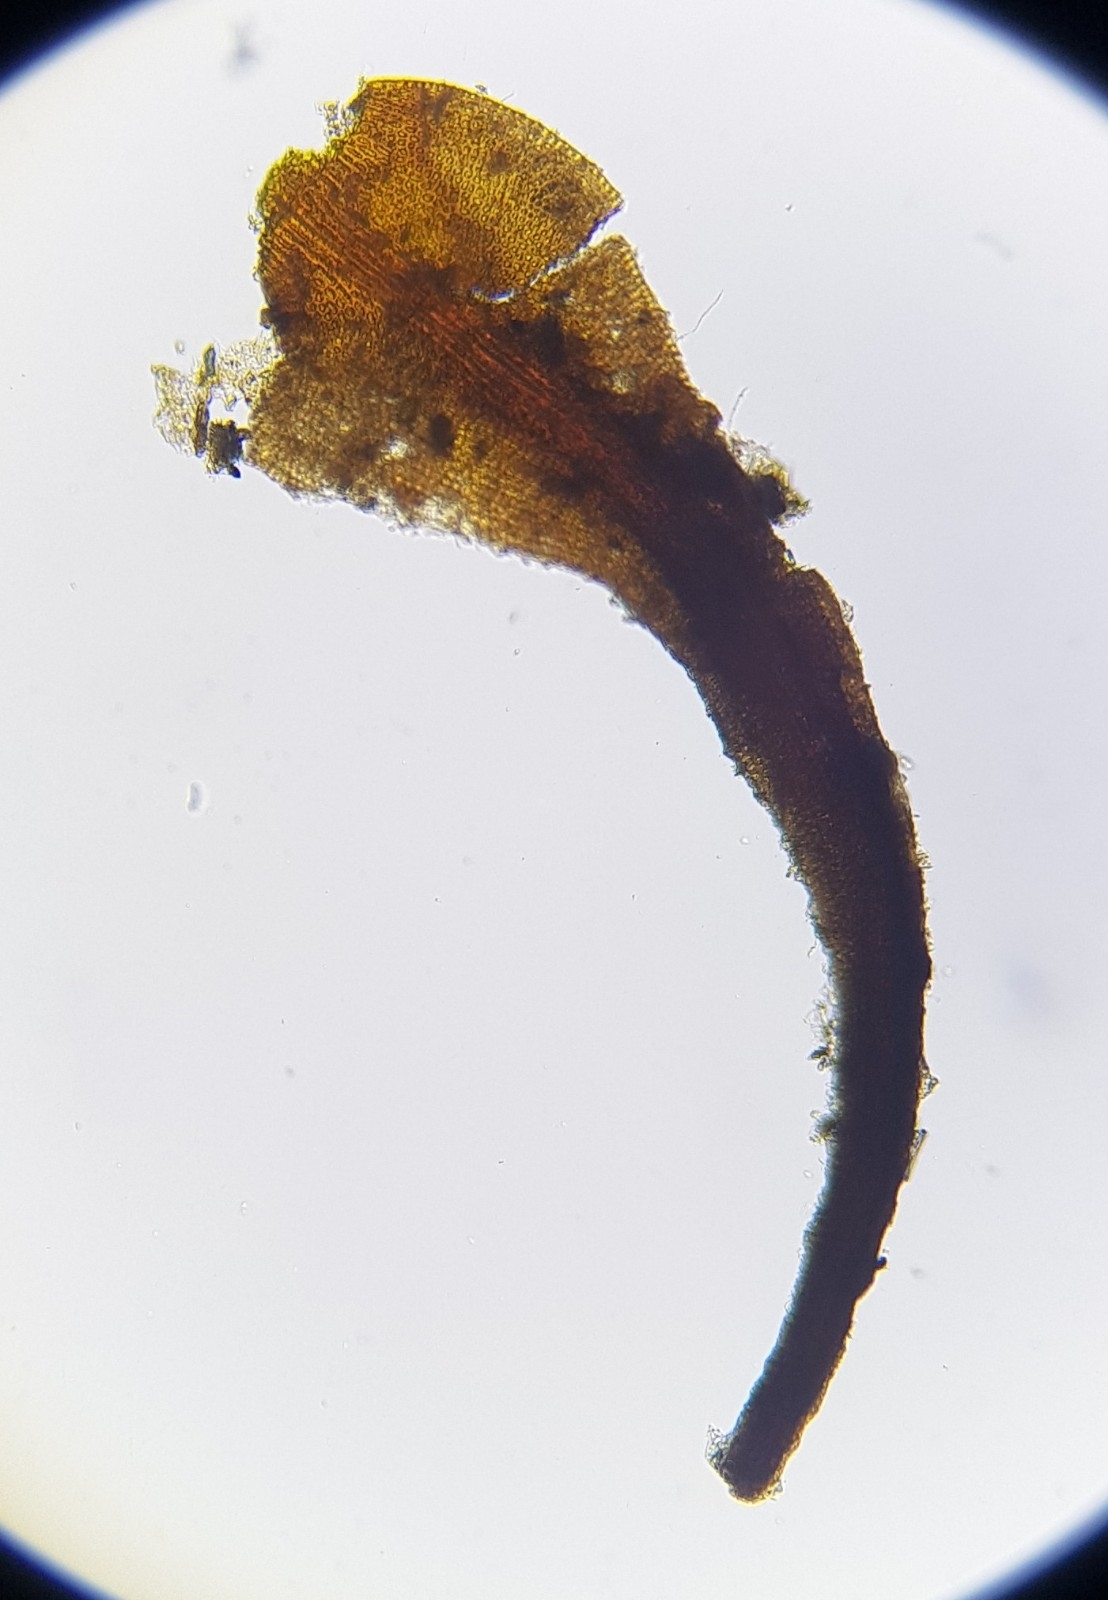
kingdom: Plantae
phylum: Bryophyta
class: Andreaeopsida
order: Andreaeales
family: Andreaeaceae
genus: Andreaea
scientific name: Andreaea rothii
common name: Dusky rock moss
